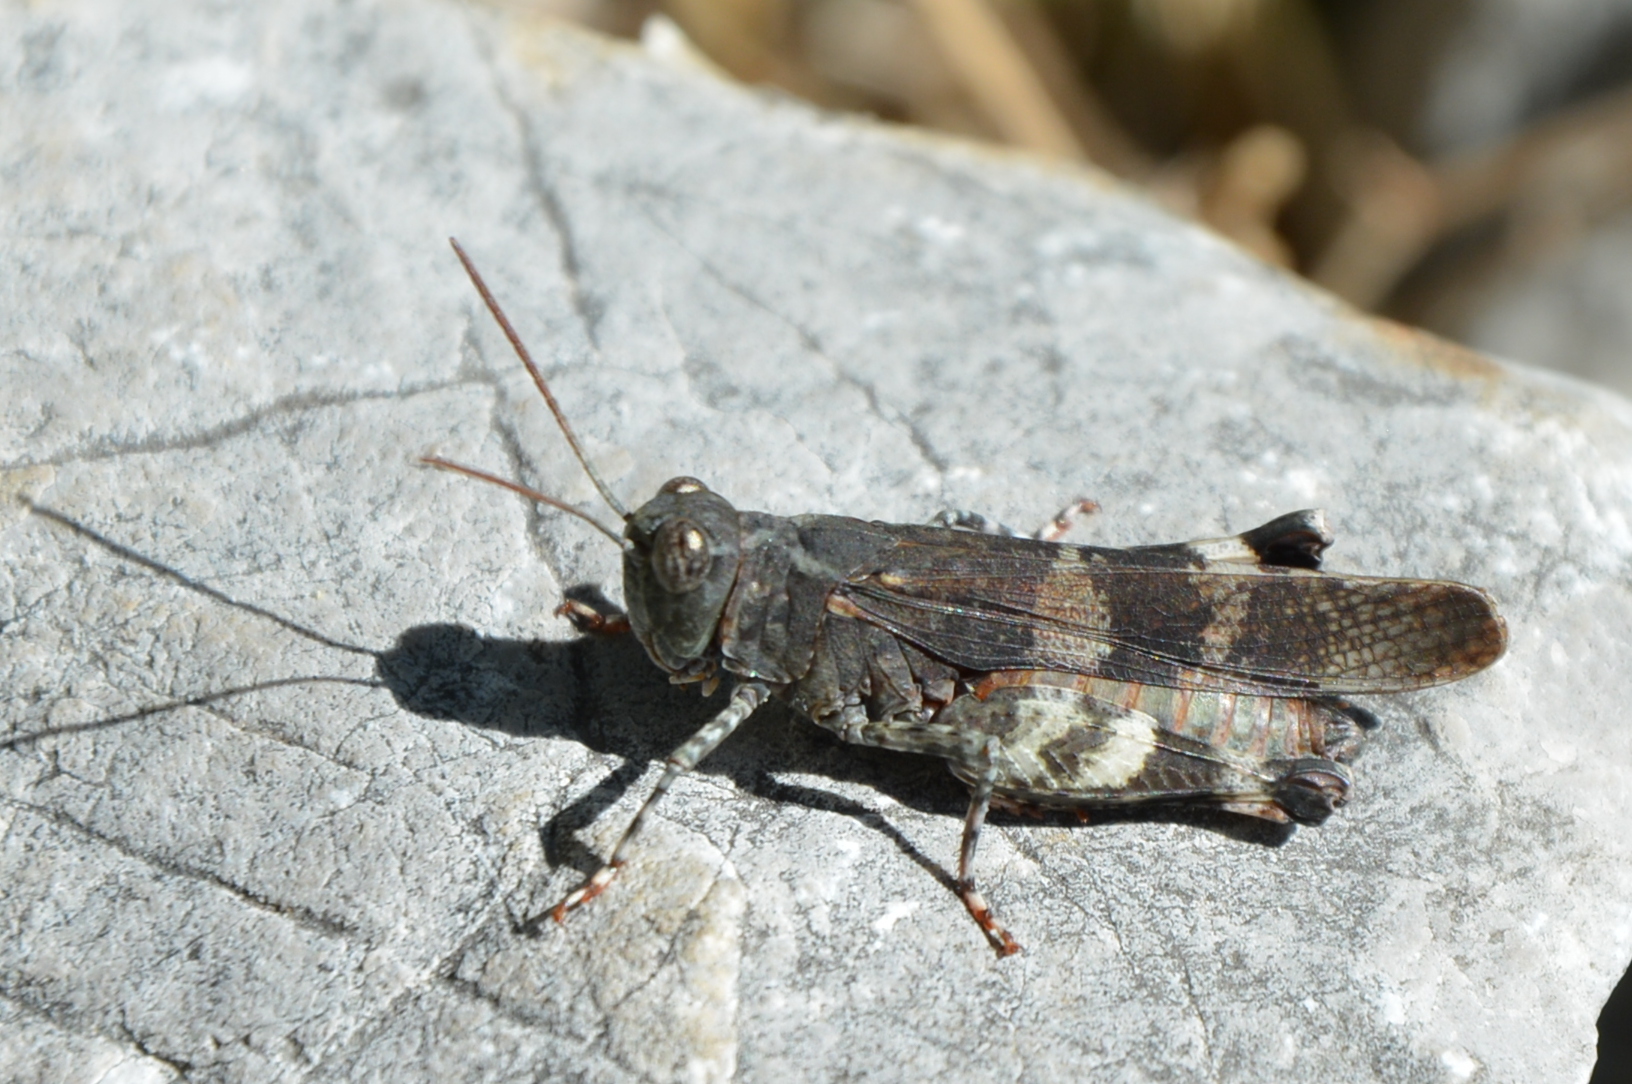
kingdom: Animalia
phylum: Arthropoda
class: Insecta
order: Orthoptera
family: Acrididae
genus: Oedipoda
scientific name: Oedipoda germanica
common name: Red band-winged grasshopper
